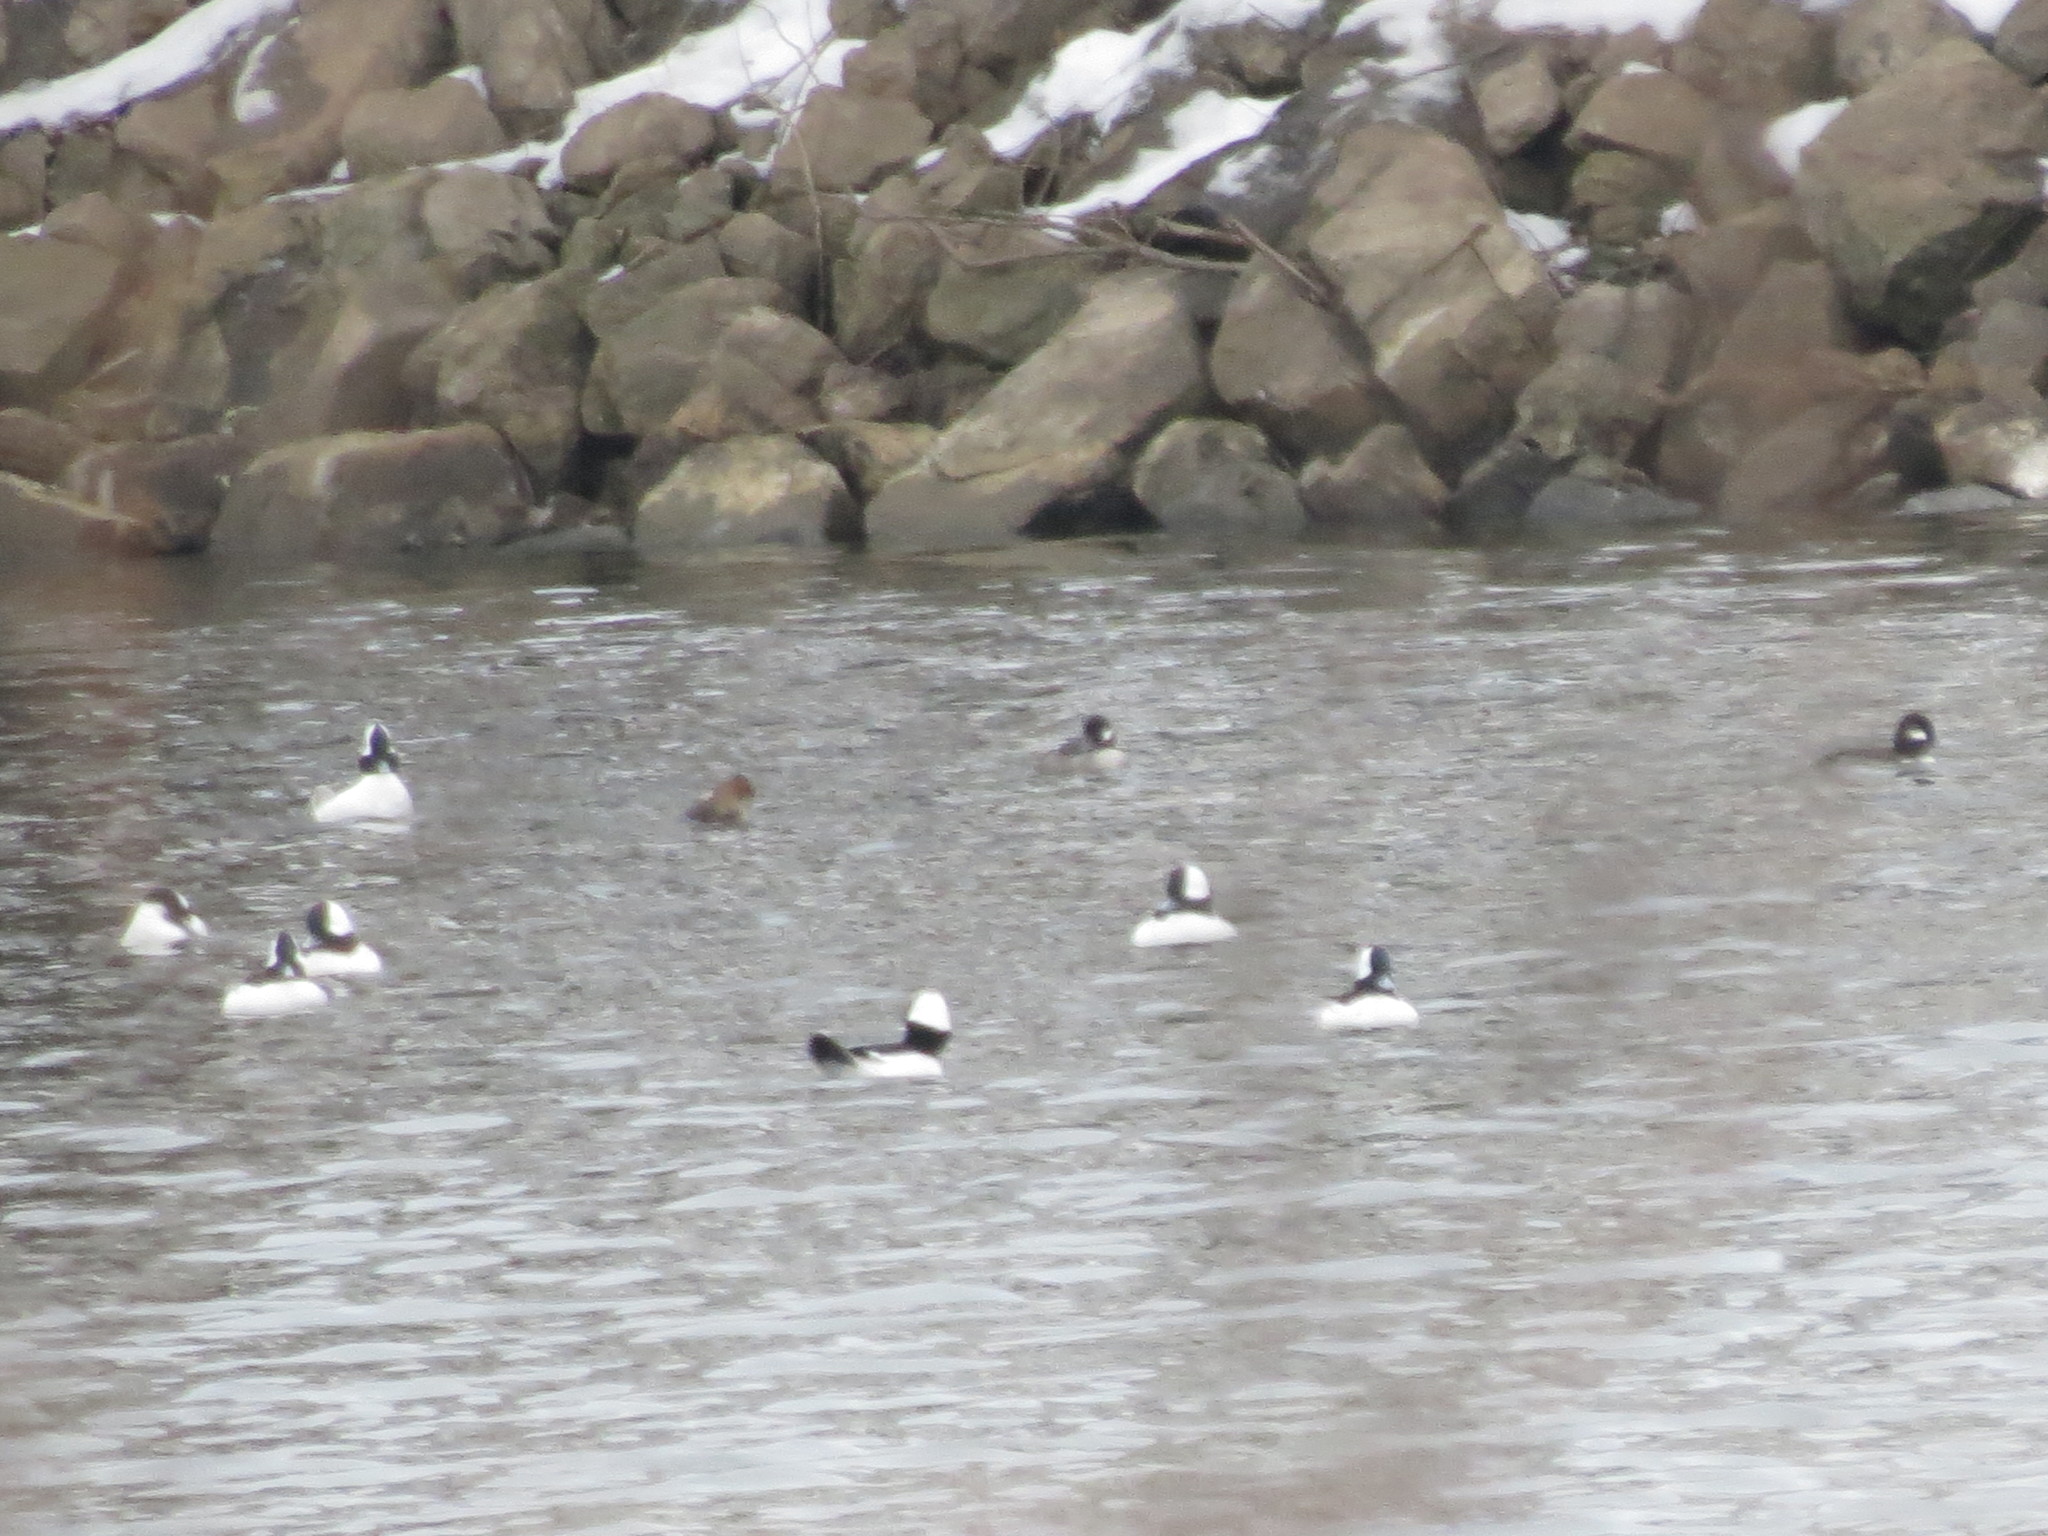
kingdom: Animalia
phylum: Chordata
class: Aves
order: Anseriformes
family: Anatidae
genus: Bucephala
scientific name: Bucephala albeola
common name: Bufflehead
